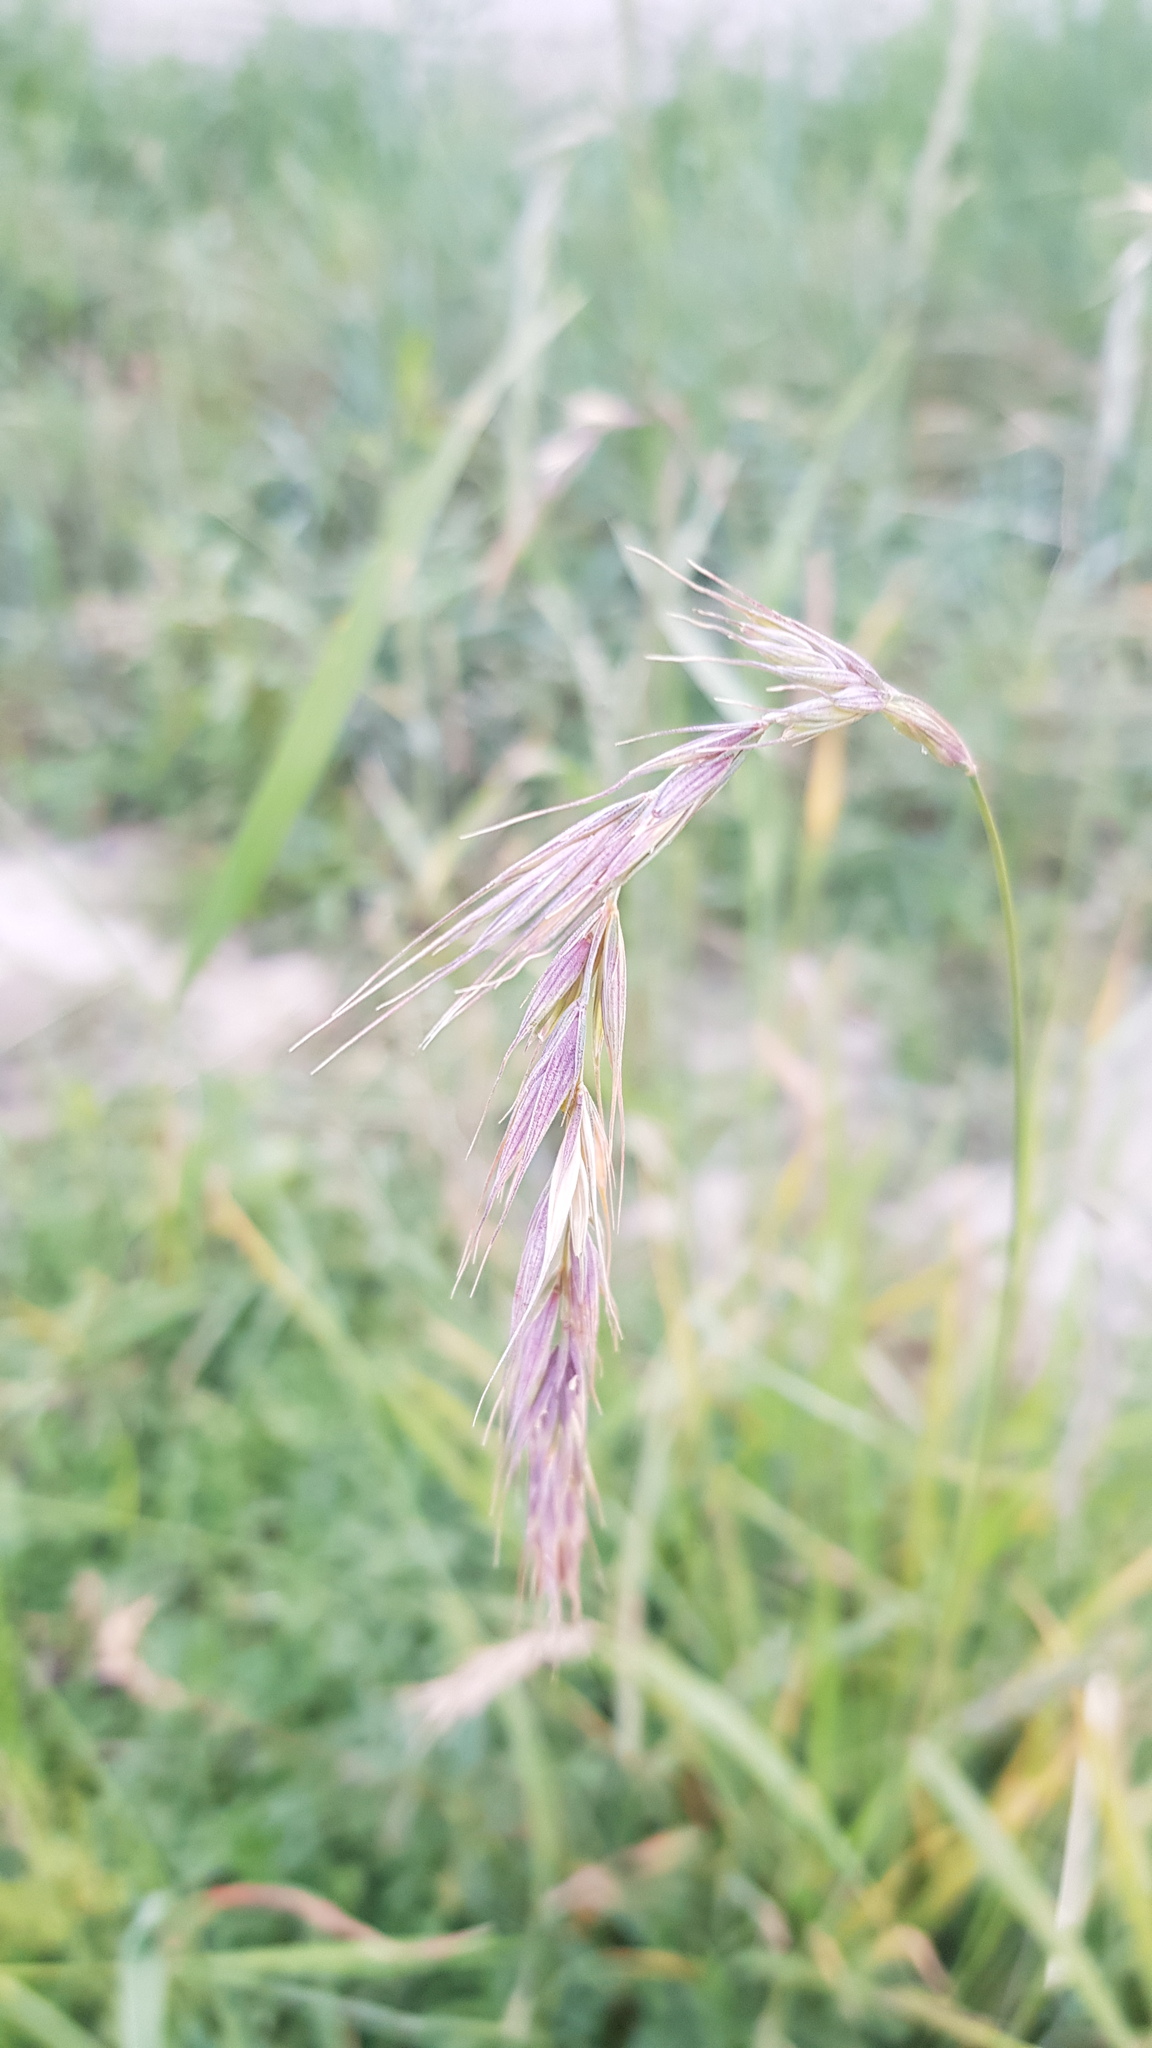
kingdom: Plantae
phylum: Tracheophyta
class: Liliopsida
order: Poales
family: Poaceae
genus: Elymus
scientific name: Elymus sibiricus
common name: Siberian wildrye
